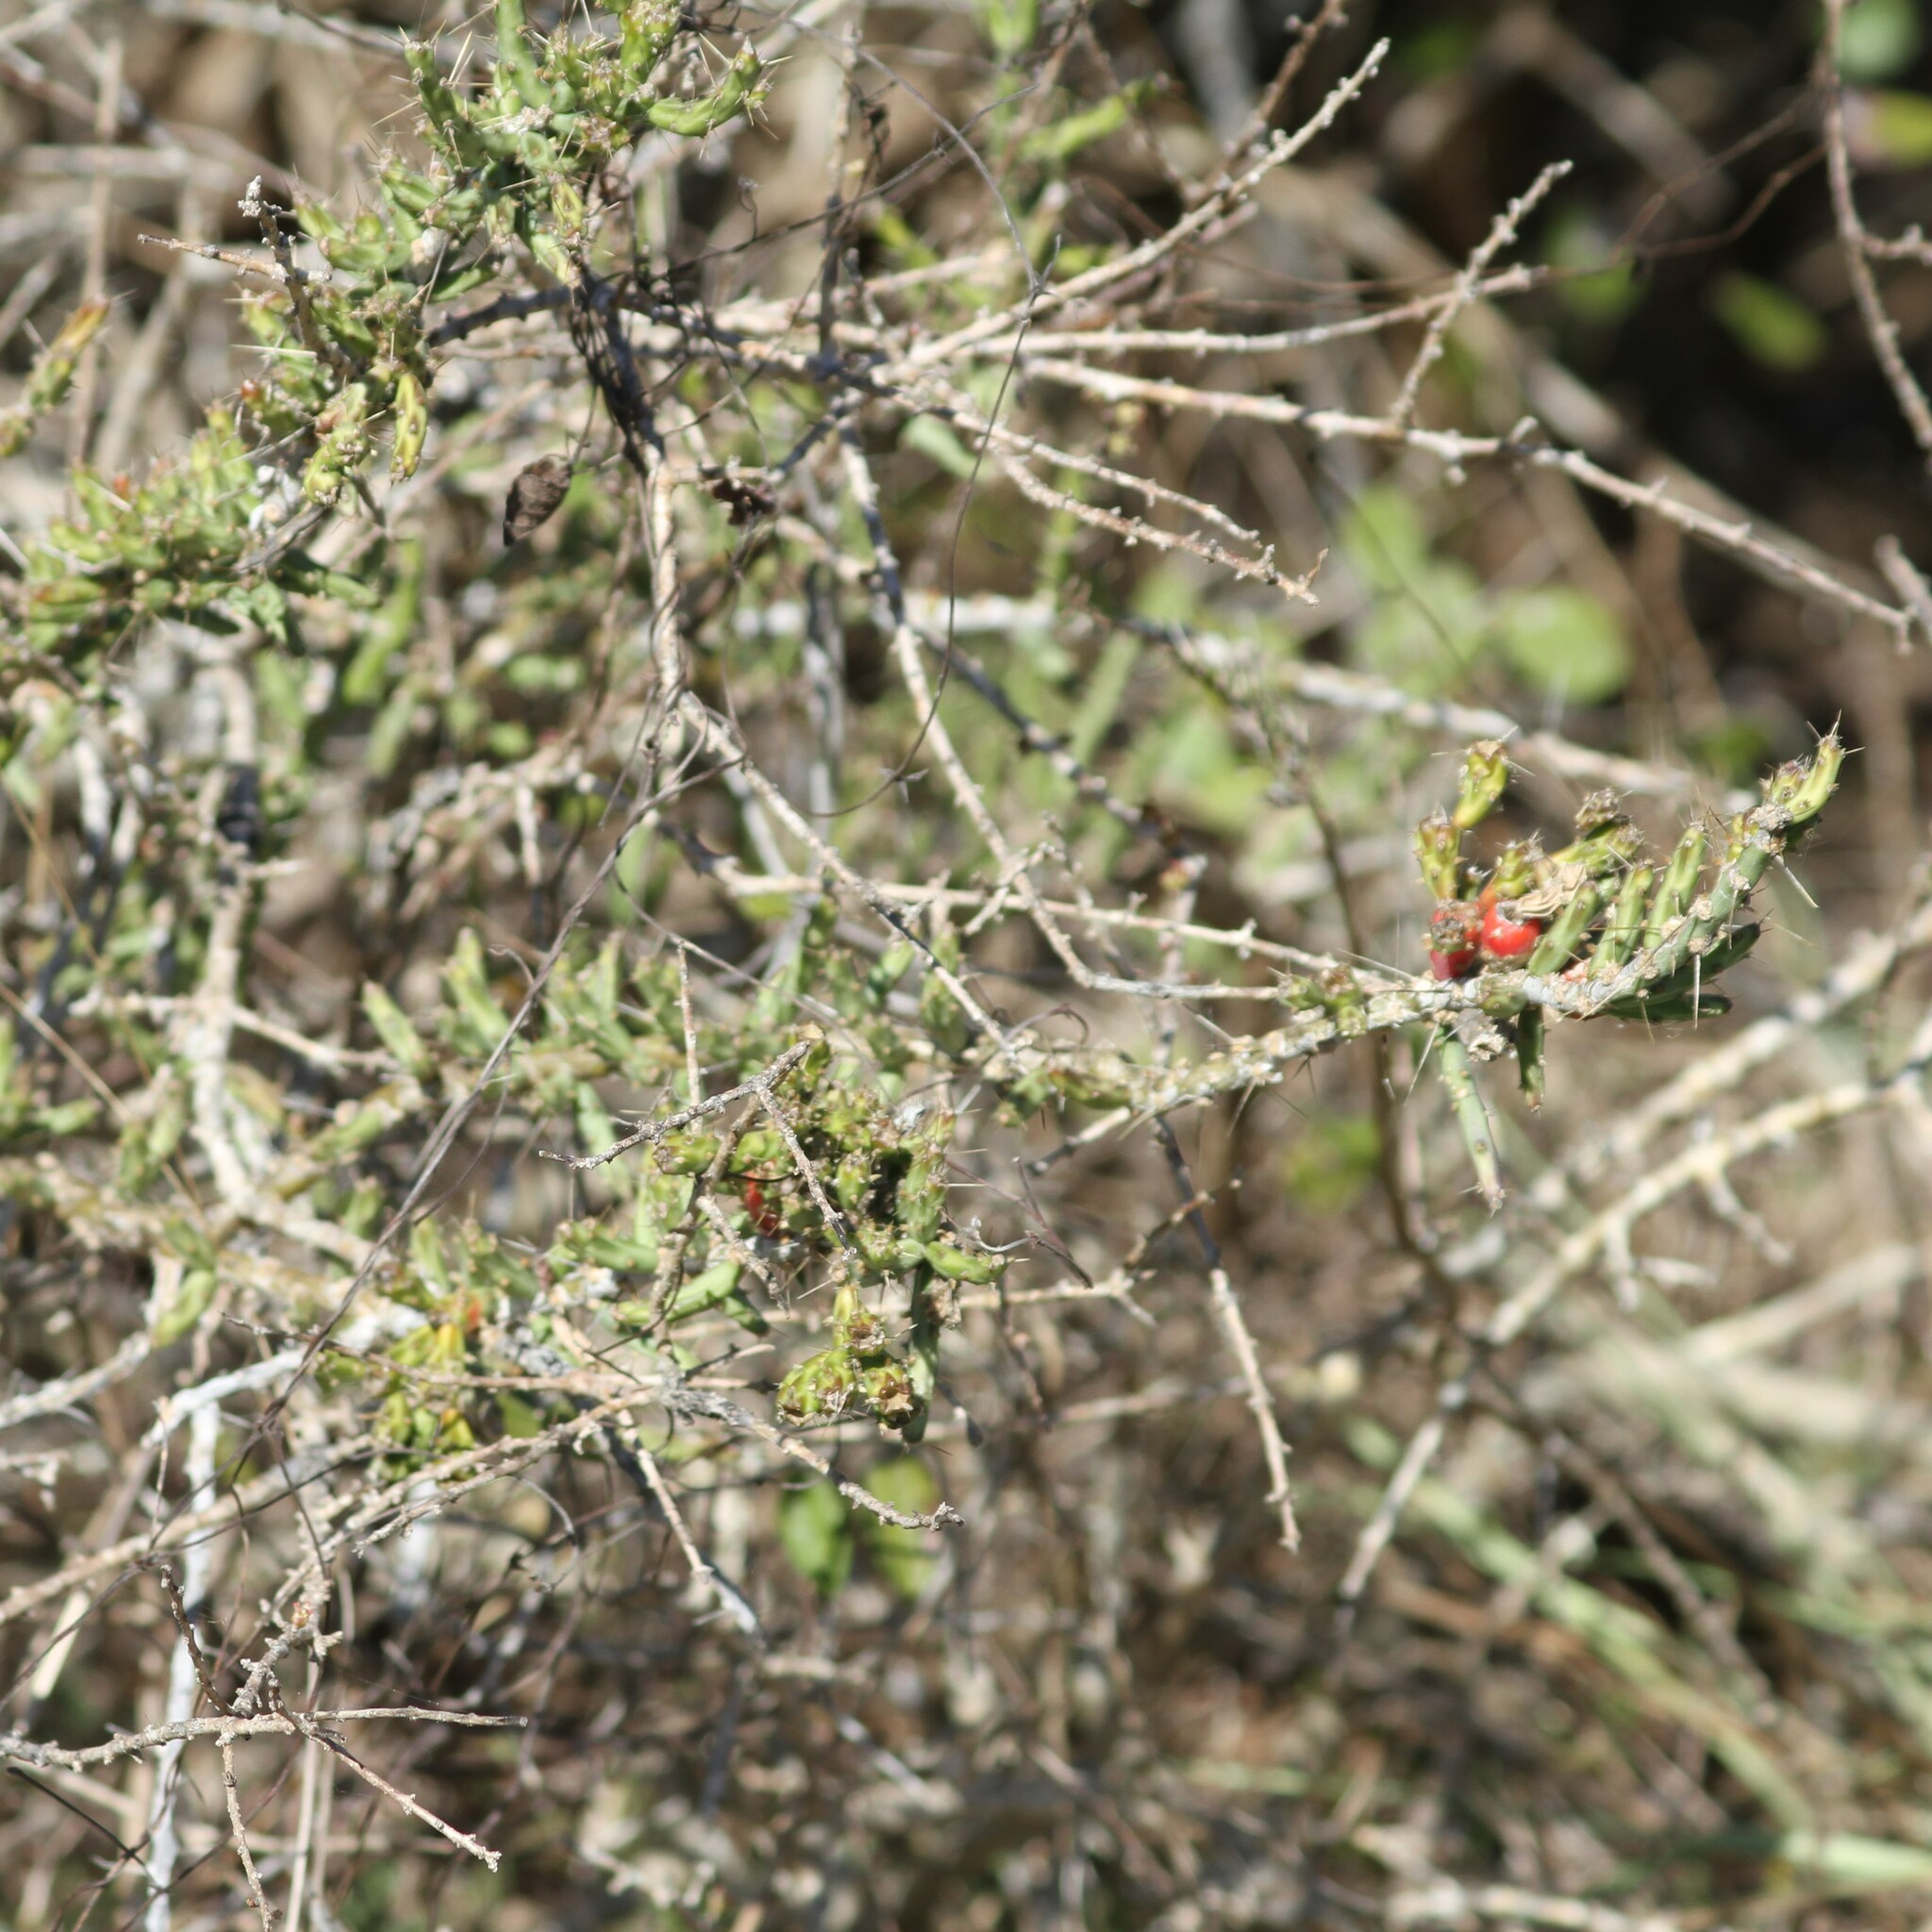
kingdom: Plantae
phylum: Tracheophyta
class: Magnoliopsida
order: Caryophyllales
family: Cactaceae
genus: Cylindropuntia
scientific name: Cylindropuntia leptocaulis
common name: Christmas cactus
